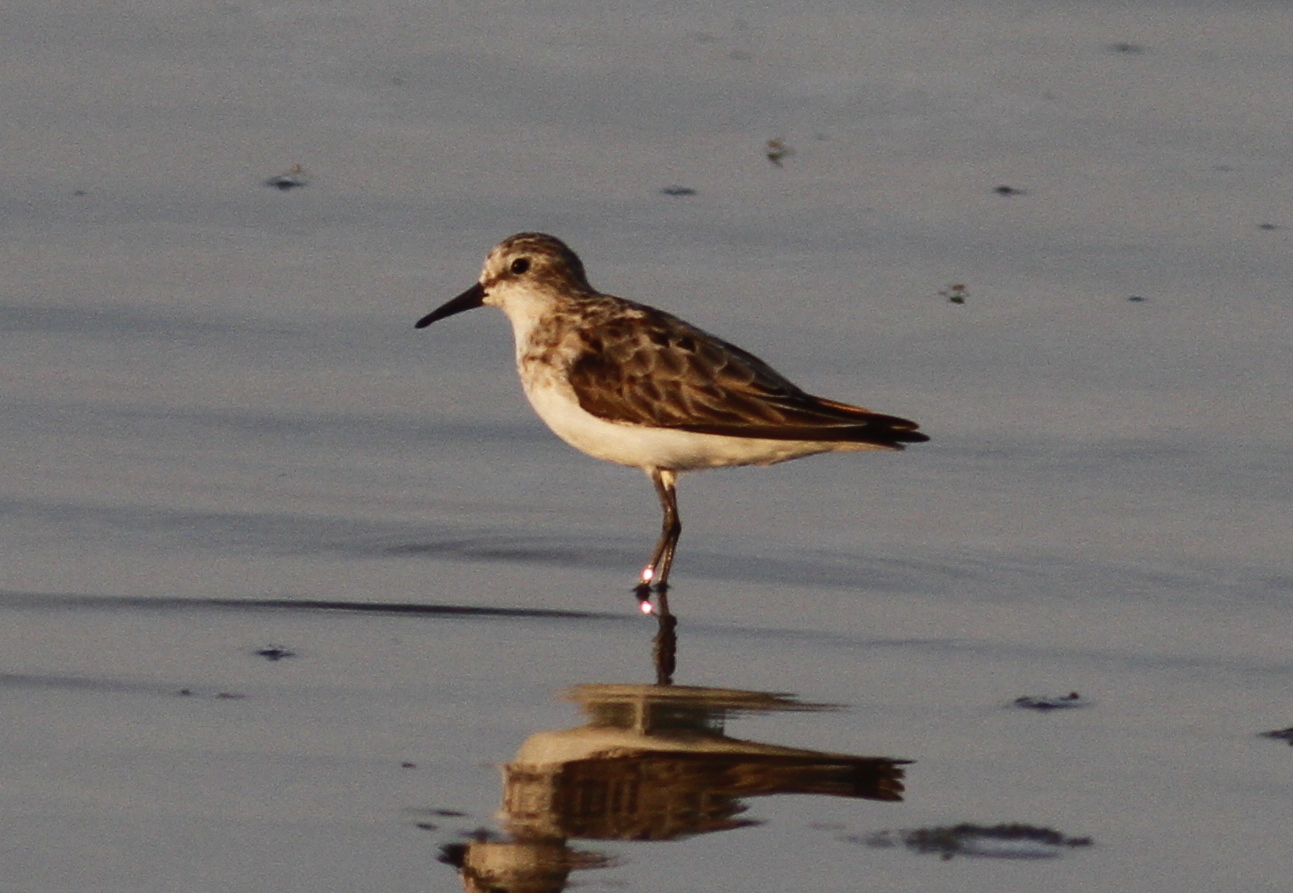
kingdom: Animalia
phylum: Chordata
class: Aves
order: Charadriiformes
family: Scolopacidae
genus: Calidris
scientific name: Calidris minuta
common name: Little stint
